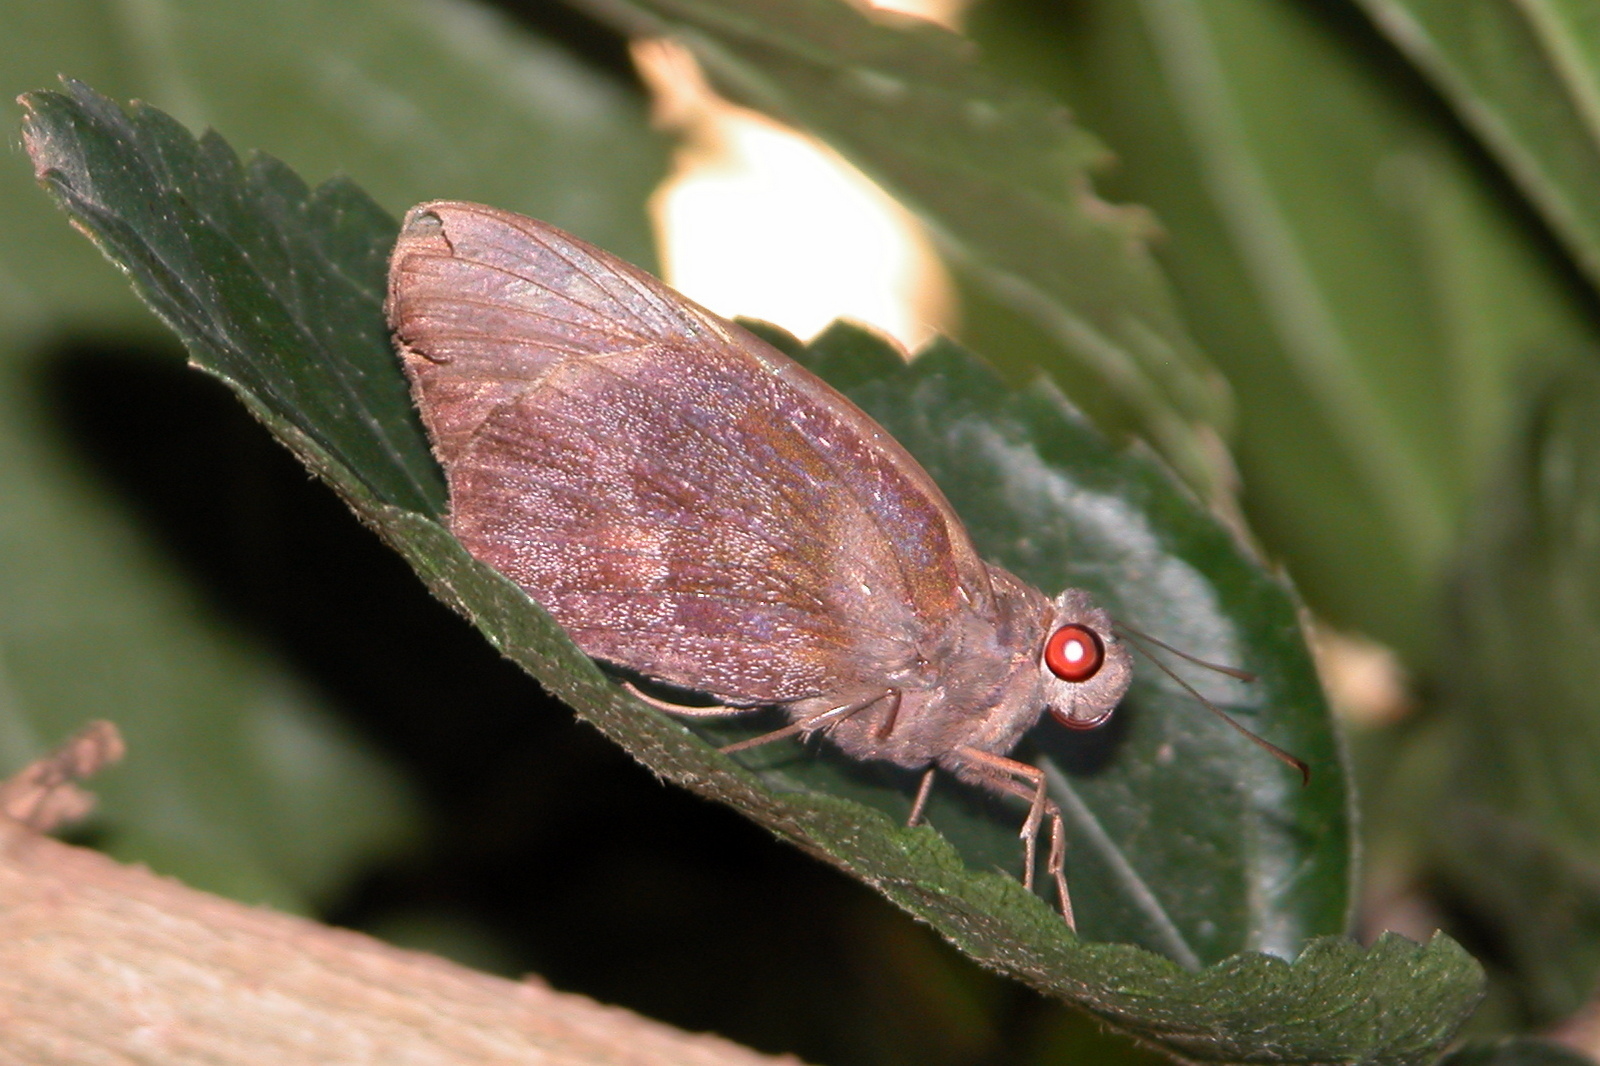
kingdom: Animalia
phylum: Arthropoda
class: Insecta
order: Lepidoptera
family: Hesperiidae
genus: Gangara
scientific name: Gangara thyrsis
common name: Giant redeye
